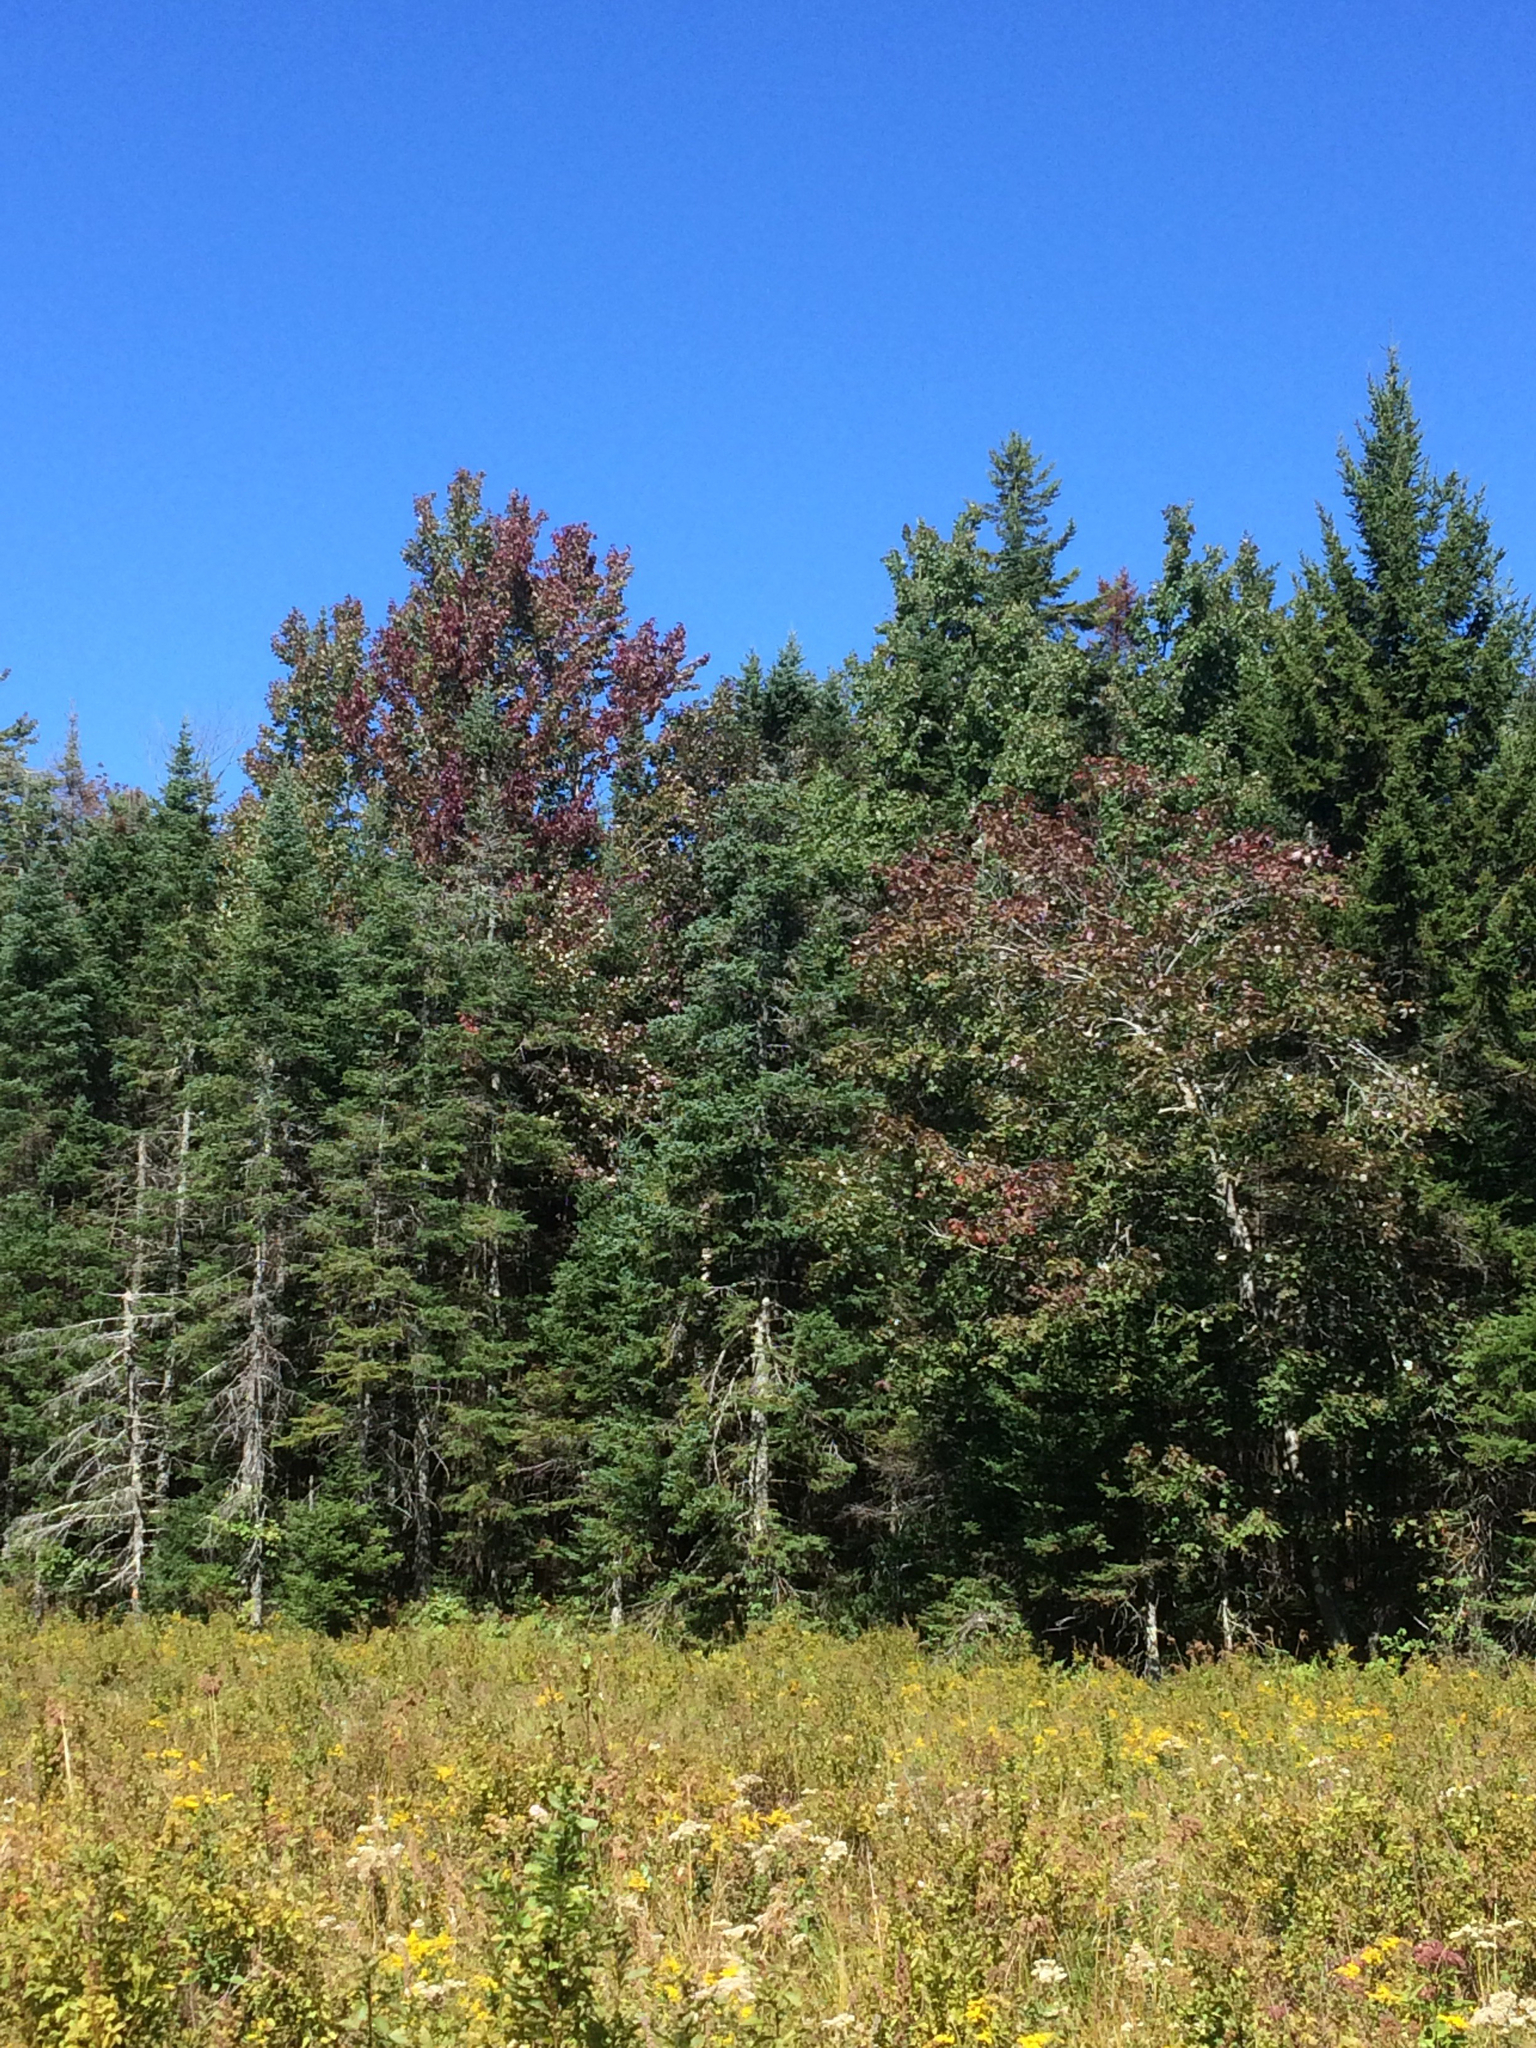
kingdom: Plantae
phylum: Tracheophyta
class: Magnoliopsida
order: Sapindales
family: Sapindaceae
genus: Acer
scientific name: Acer rubrum
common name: Red maple
